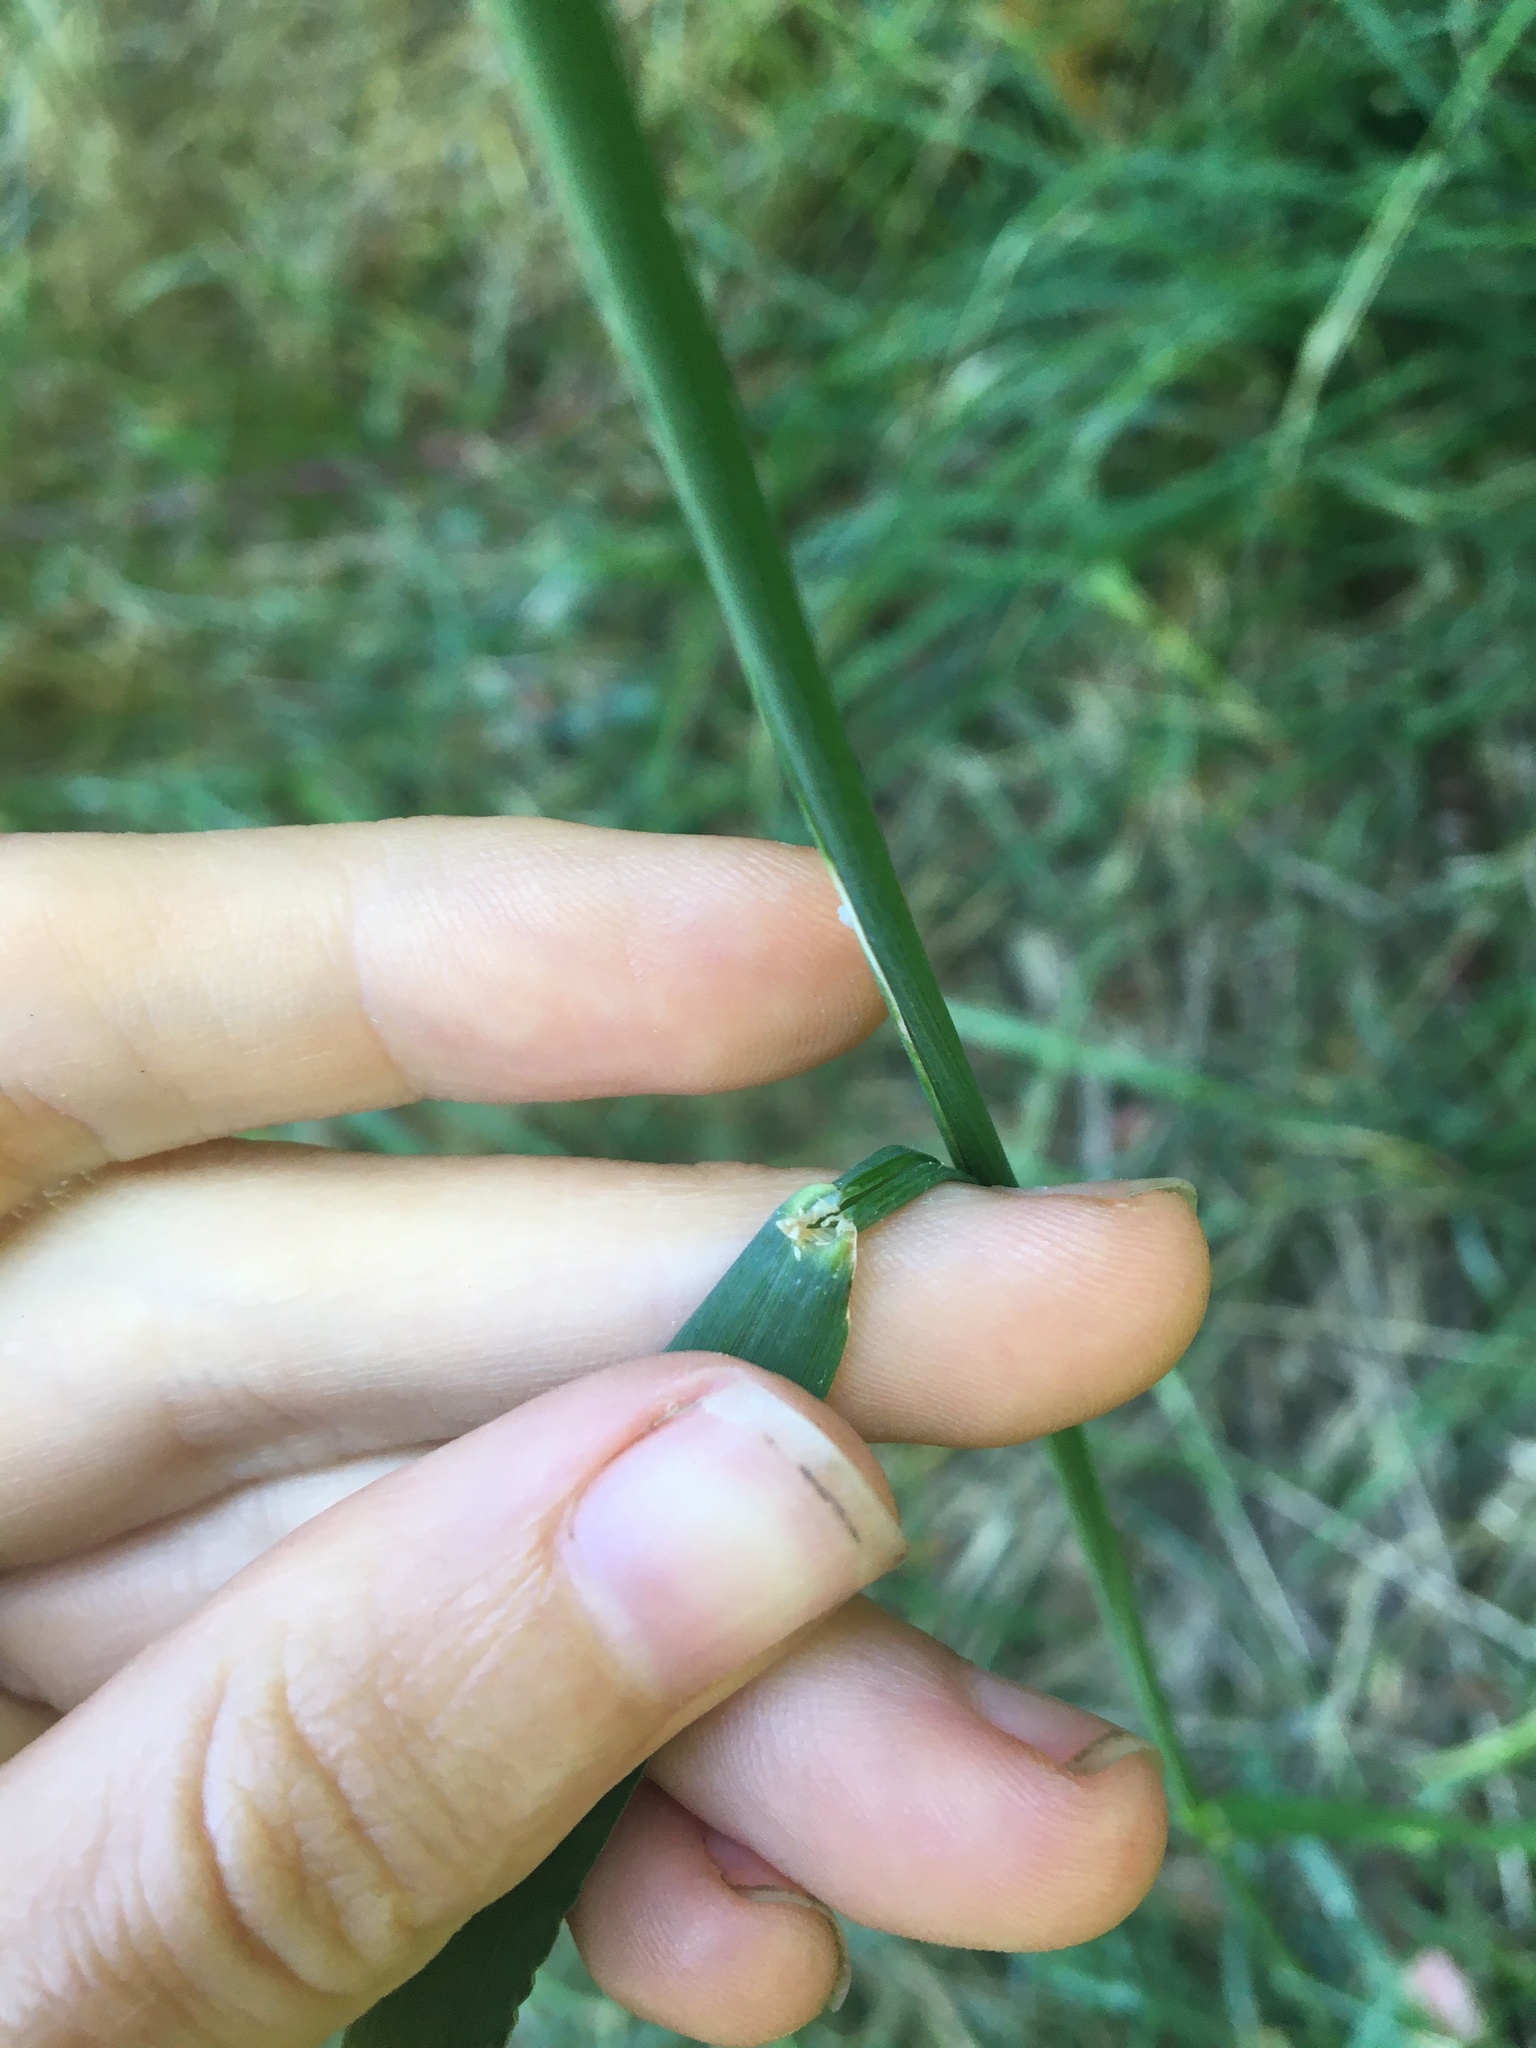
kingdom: Plantae
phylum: Tracheophyta
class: Liliopsida
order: Poales
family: Poaceae
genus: Phleum
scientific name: Phleum pratense
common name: Timothy grass
